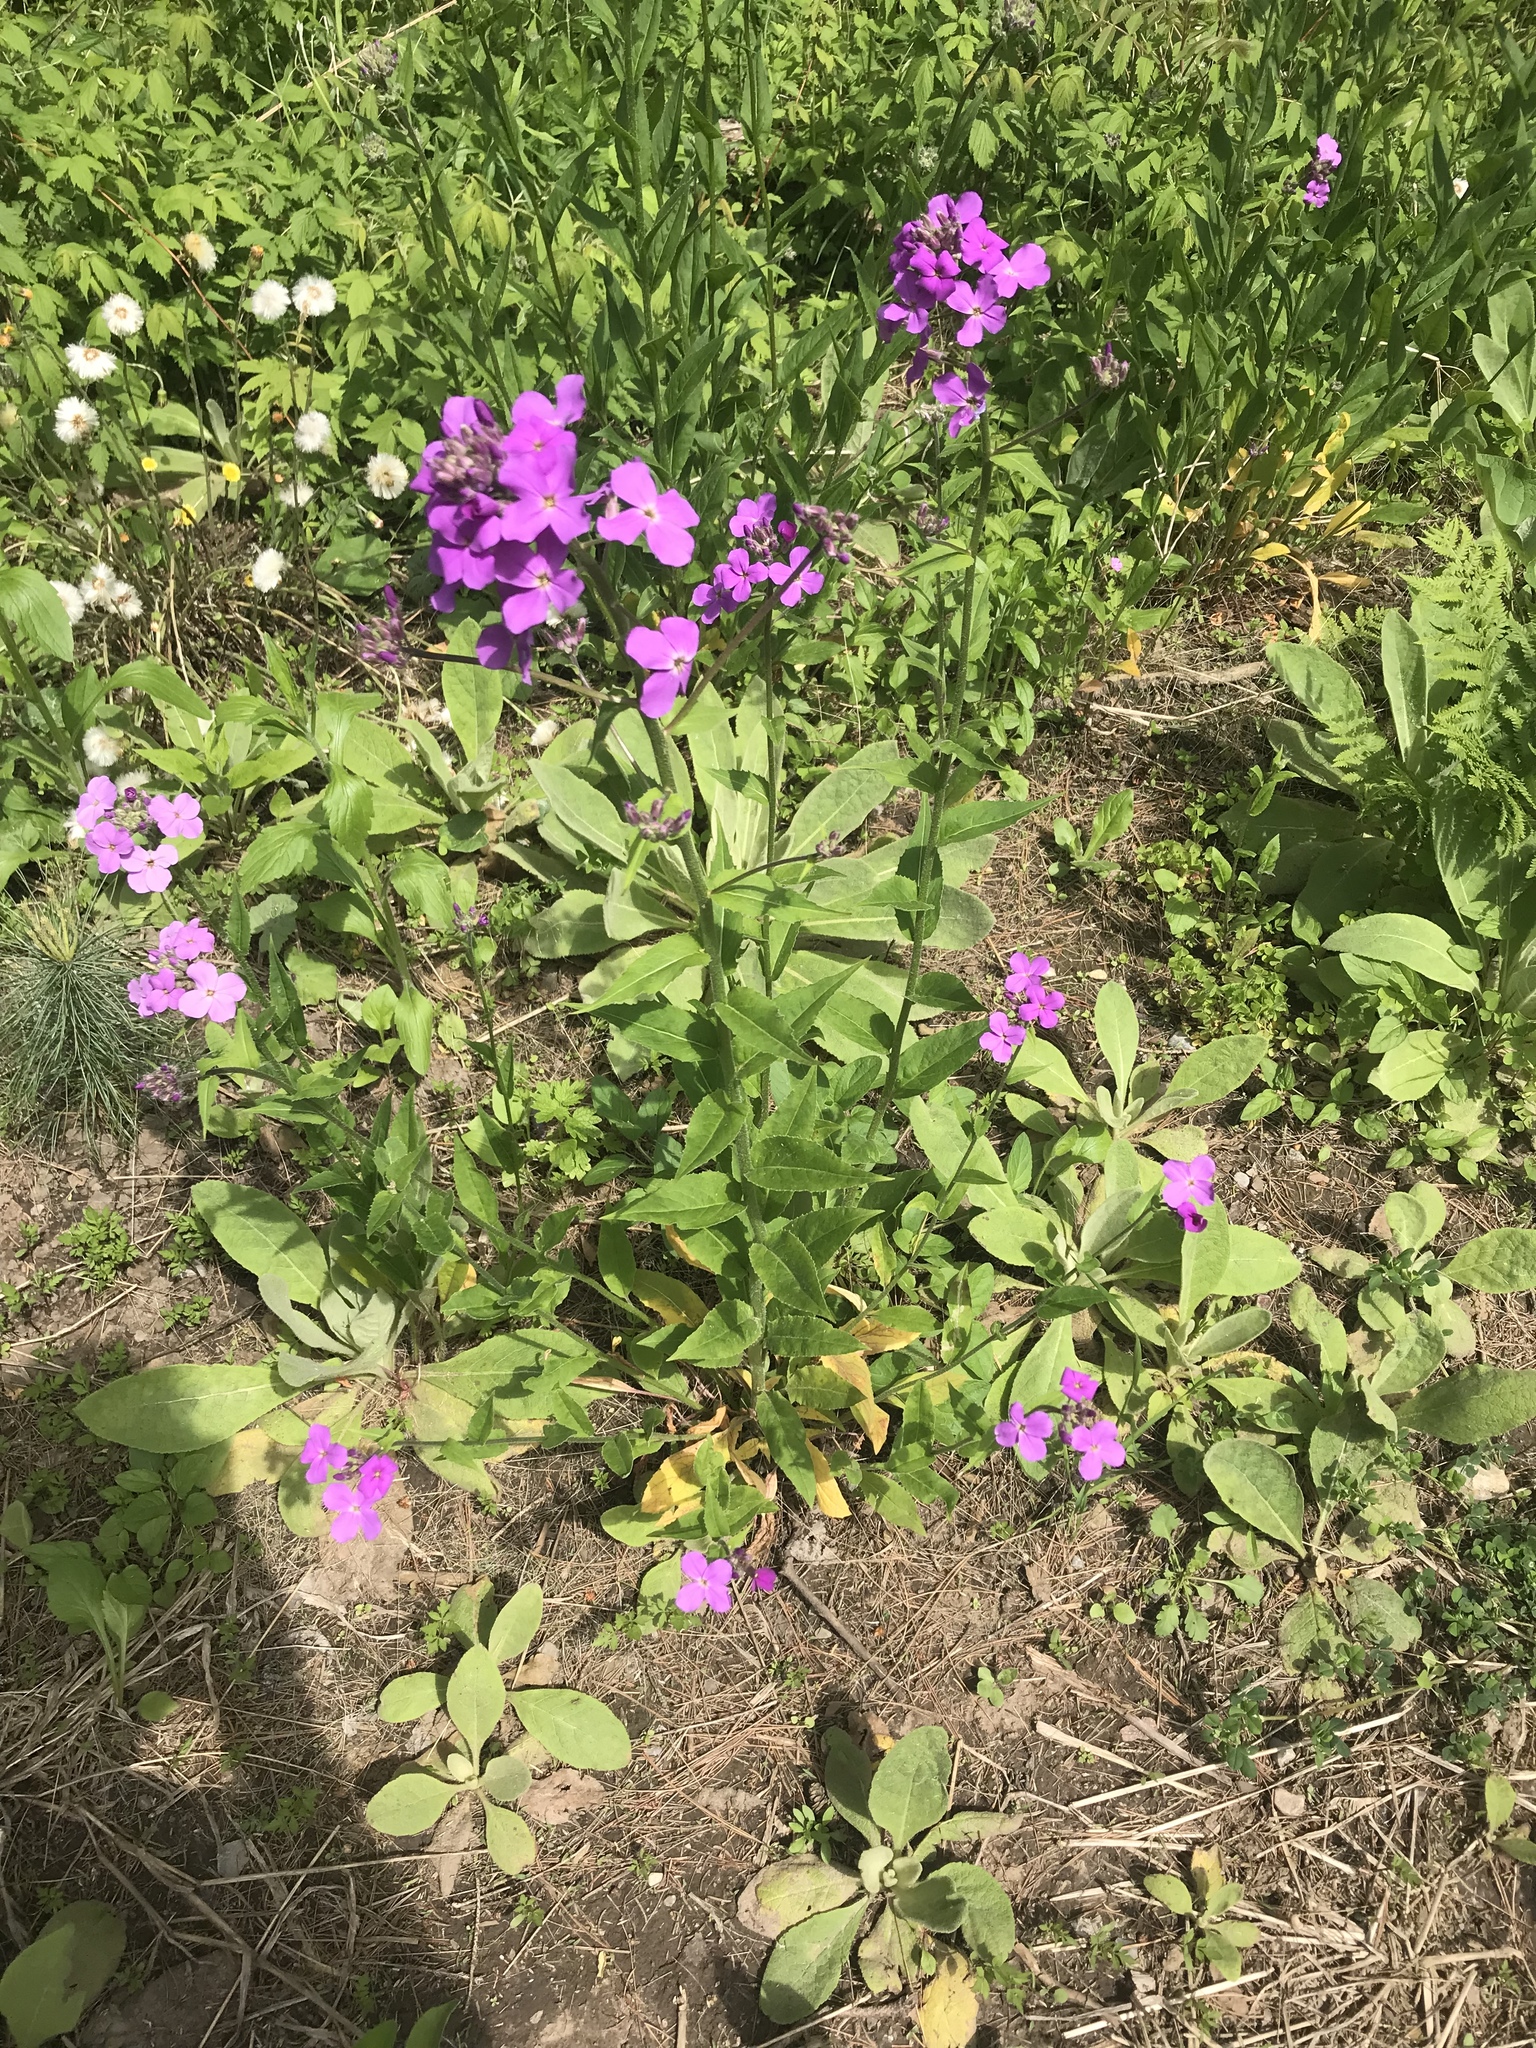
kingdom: Plantae
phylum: Tracheophyta
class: Magnoliopsida
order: Brassicales
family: Brassicaceae
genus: Hesperis
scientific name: Hesperis matronalis
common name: Dame's-violet
